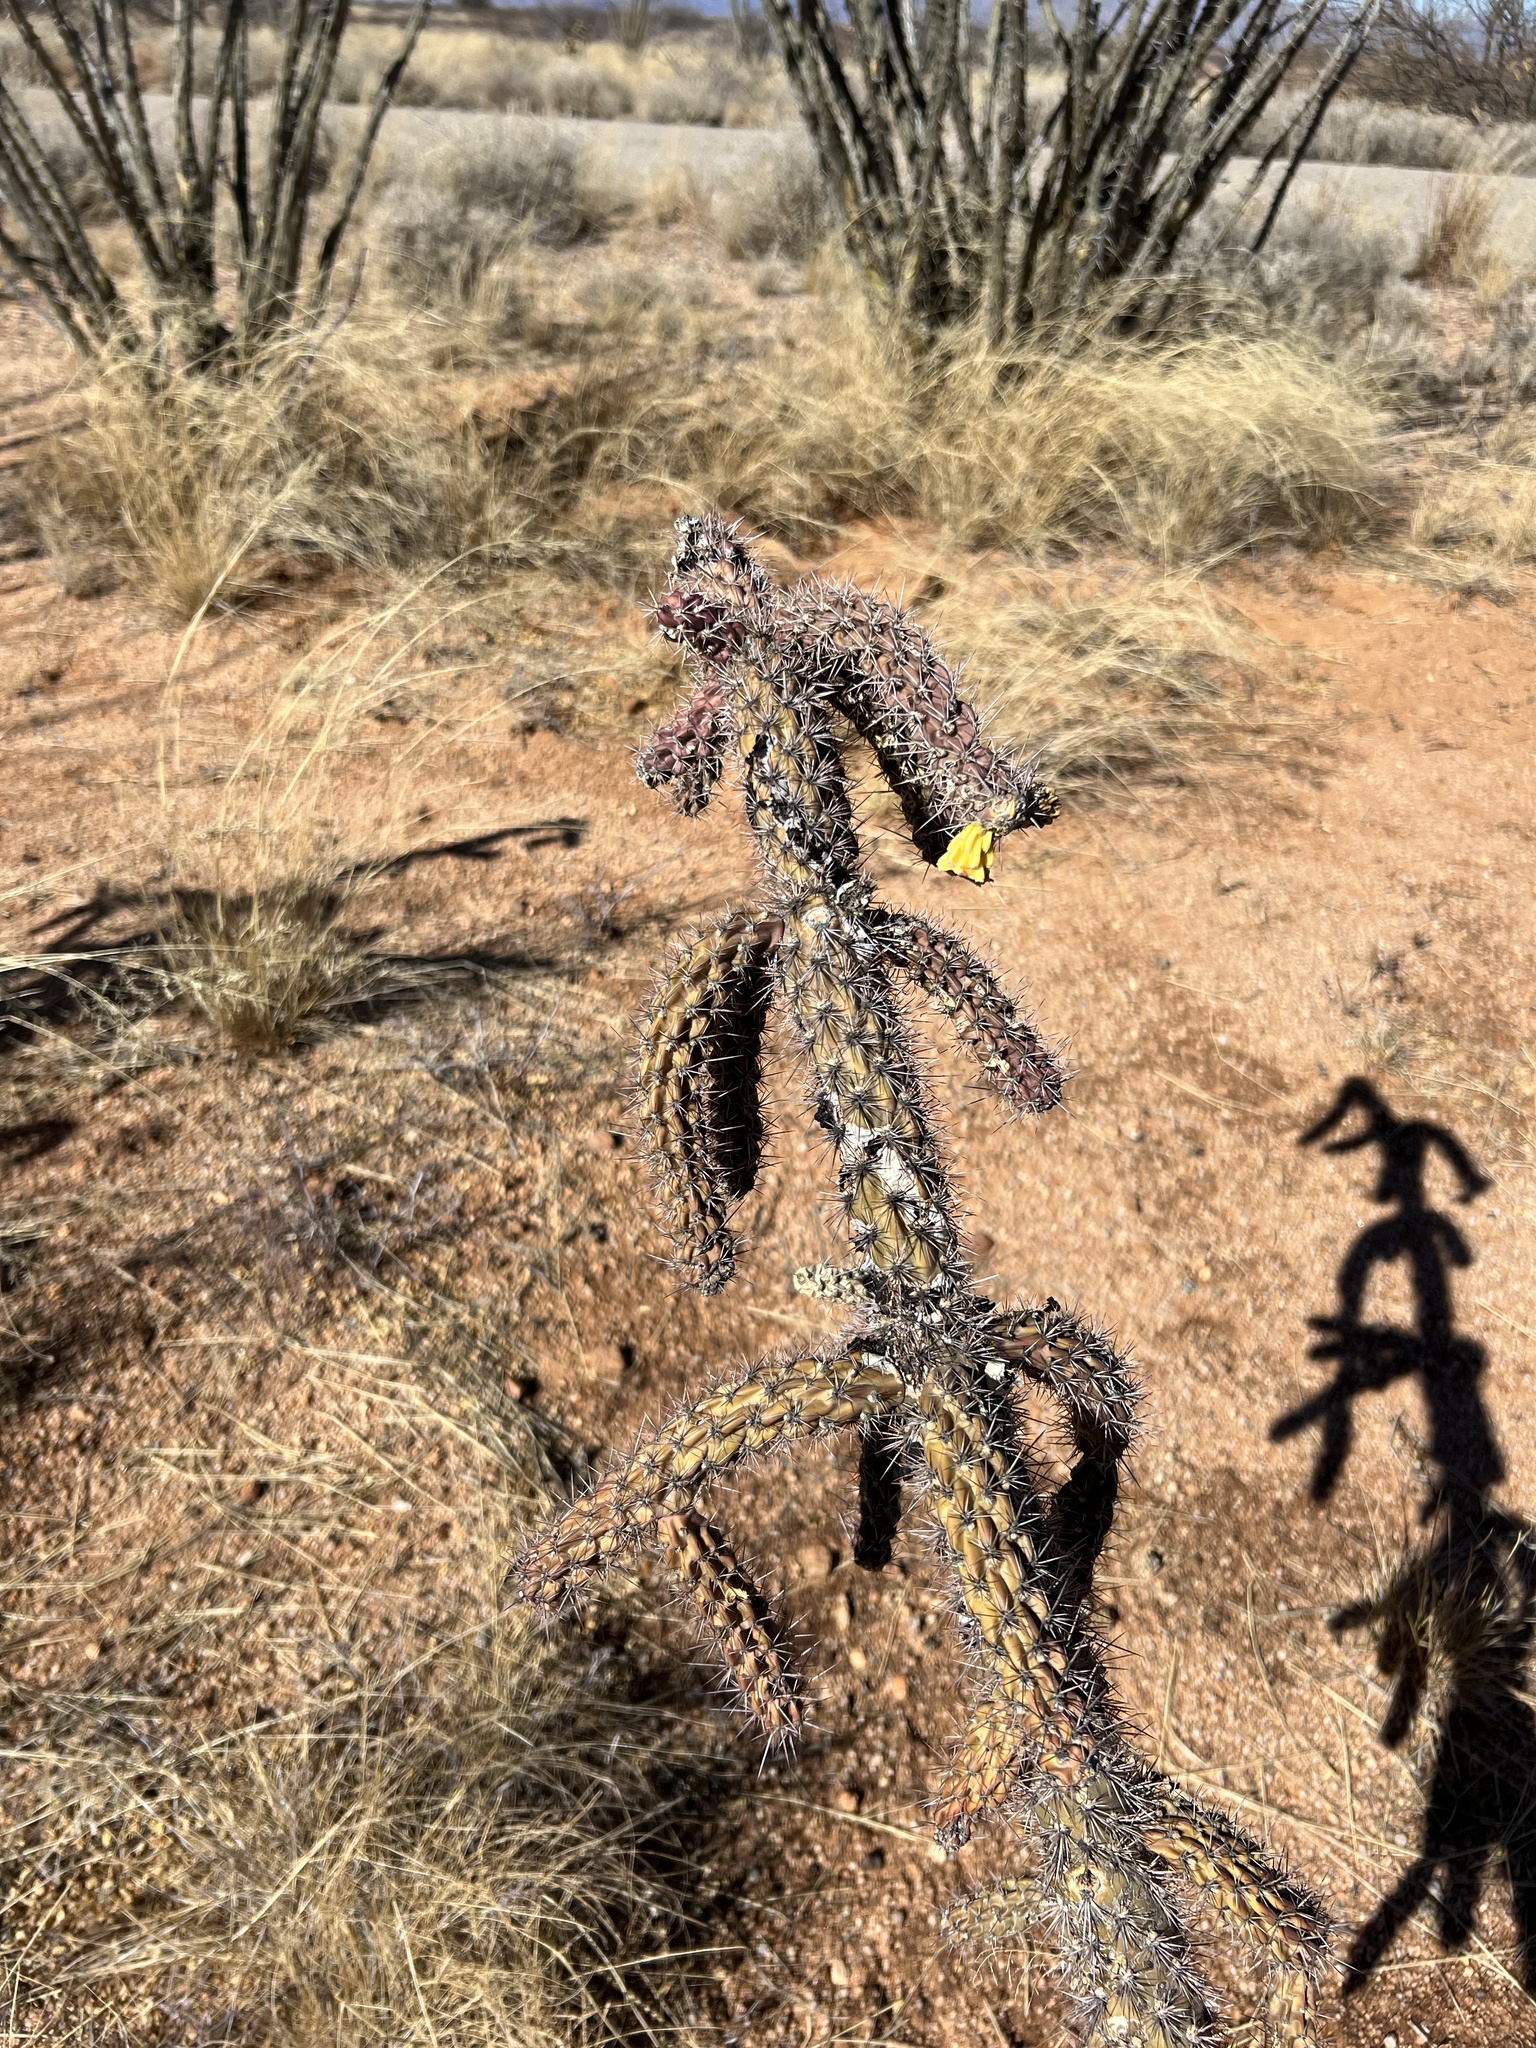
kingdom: Plantae
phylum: Tracheophyta
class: Magnoliopsida
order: Caryophyllales
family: Cactaceae
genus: Cylindropuntia
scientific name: Cylindropuntia imbricata
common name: Candelabrum cactus
